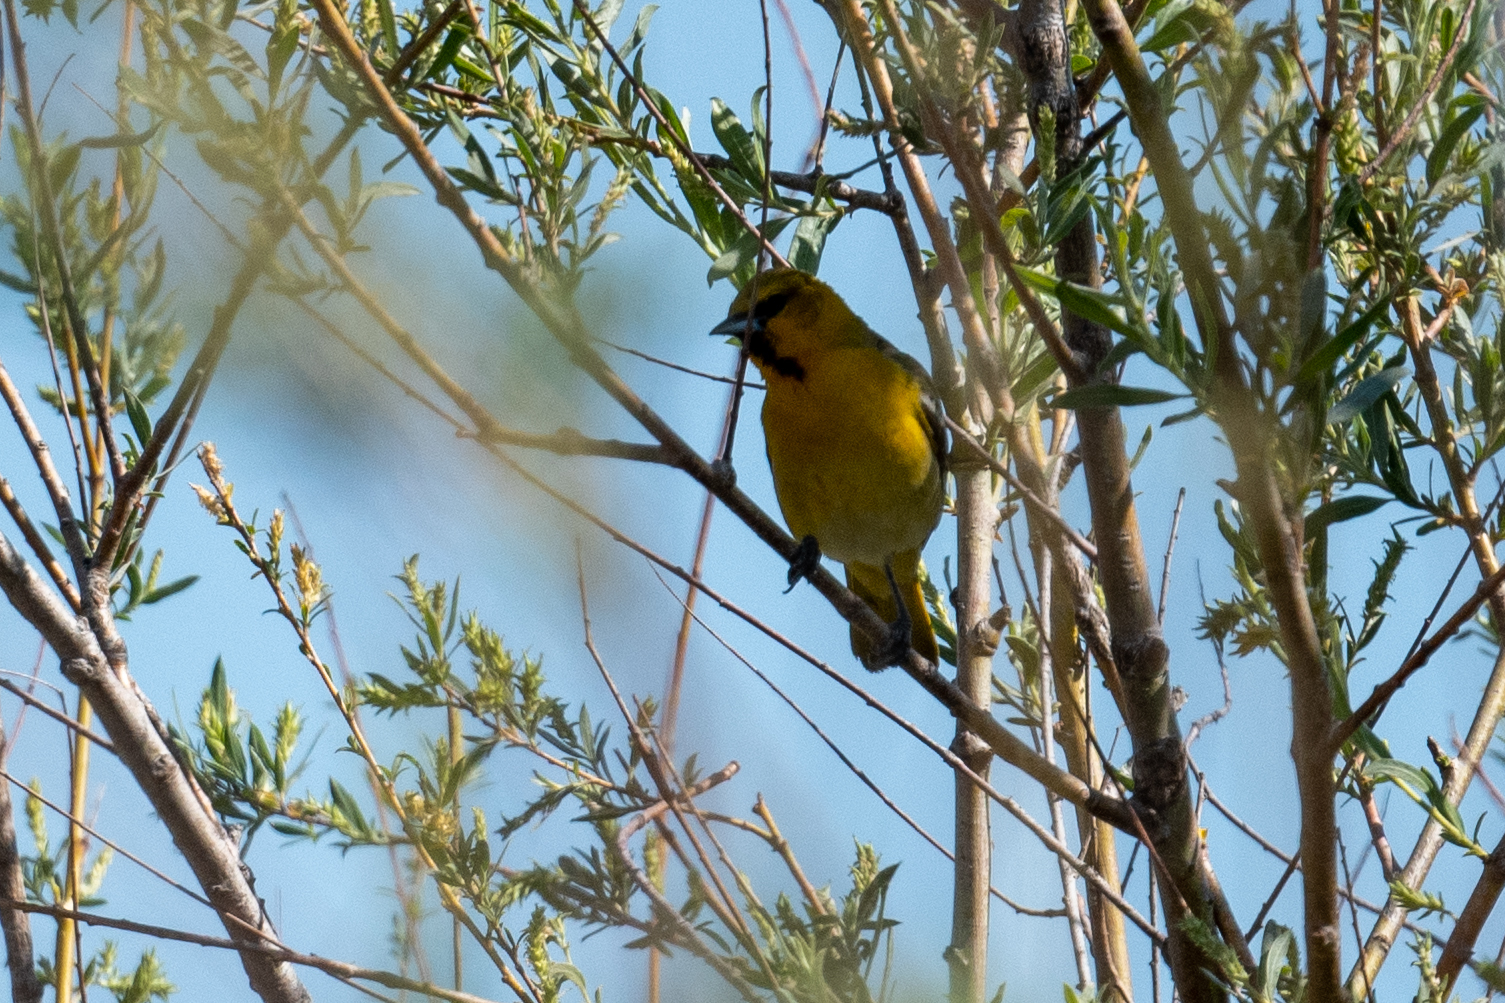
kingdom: Animalia
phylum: Chordata
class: Aves
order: Passeriformes
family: Icteridae
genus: Icterus
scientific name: Icterus bullockii
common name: Bullock's oriole
